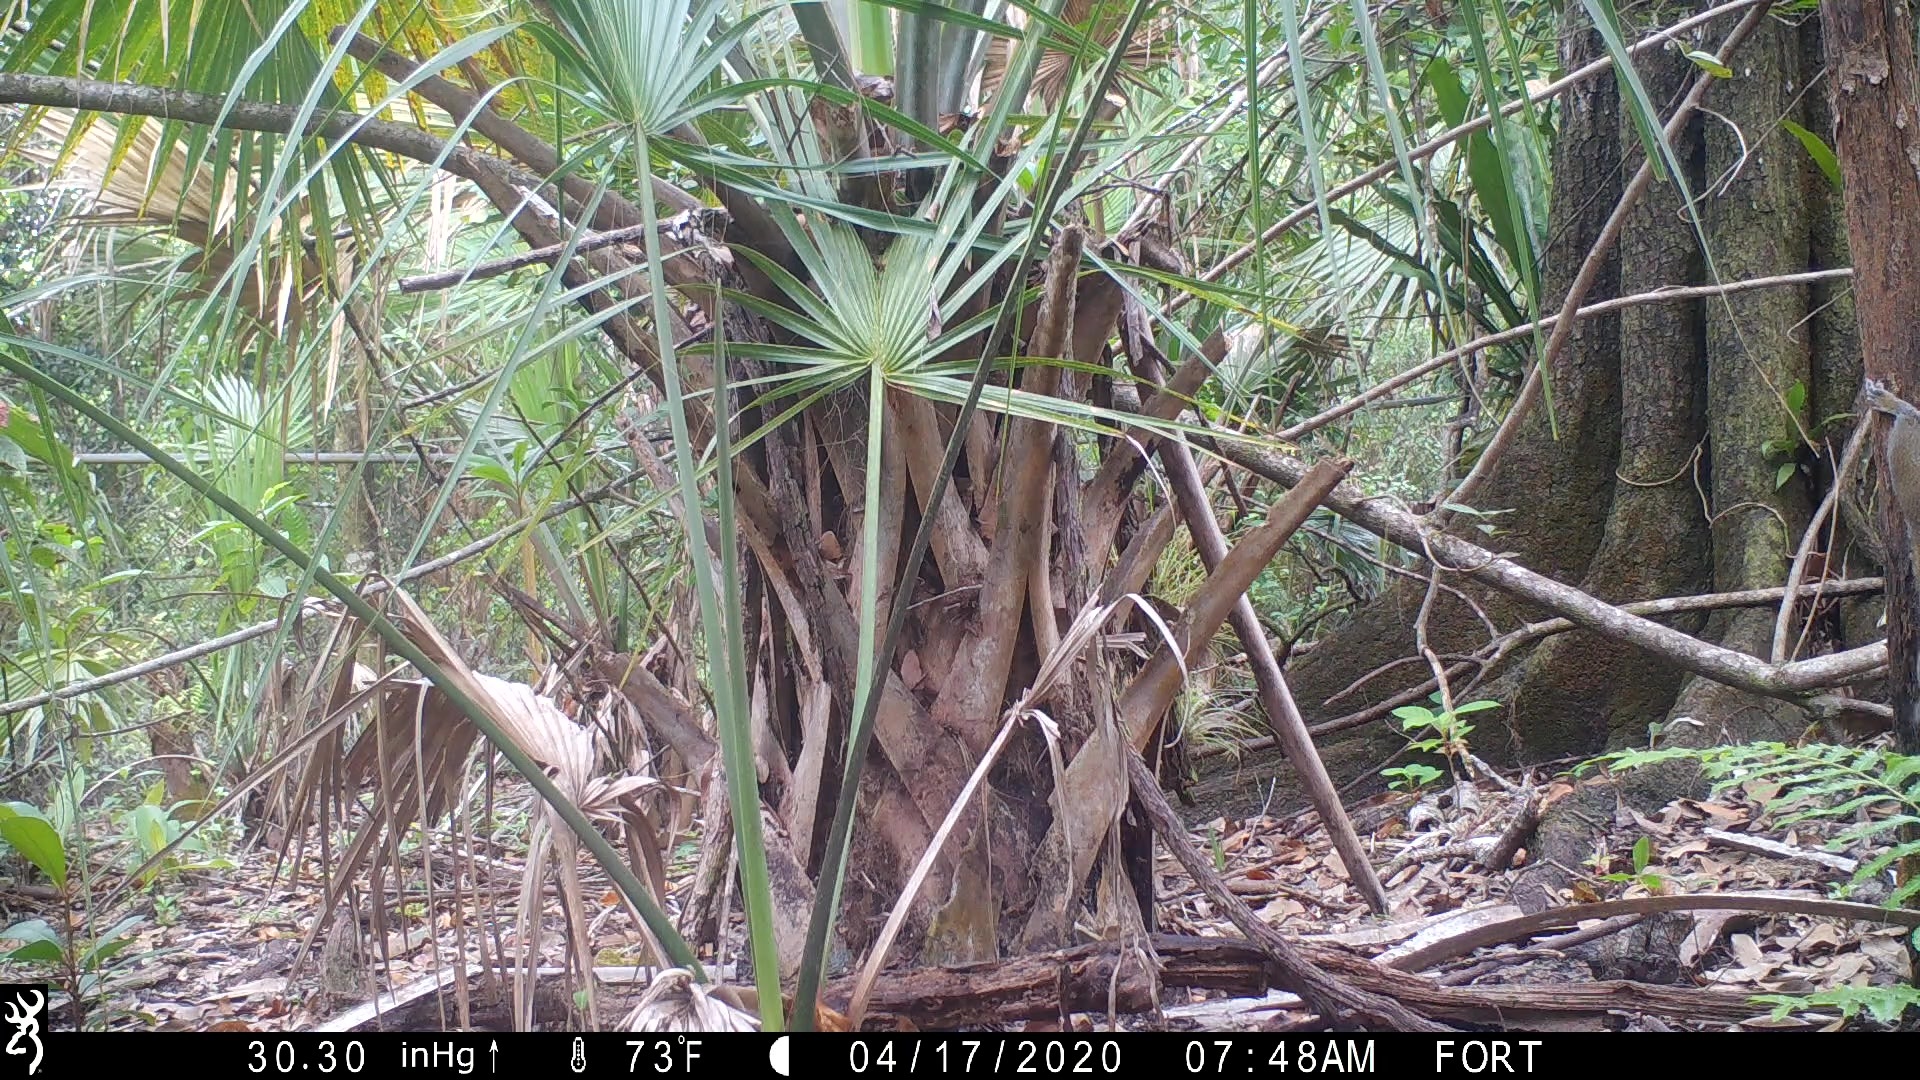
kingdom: Animalia
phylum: Chordata
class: Mammalia
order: Rodentia
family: Sciuridae
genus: Sciurus
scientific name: Sciurus carolinensis
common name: Eastern gray squirrel
